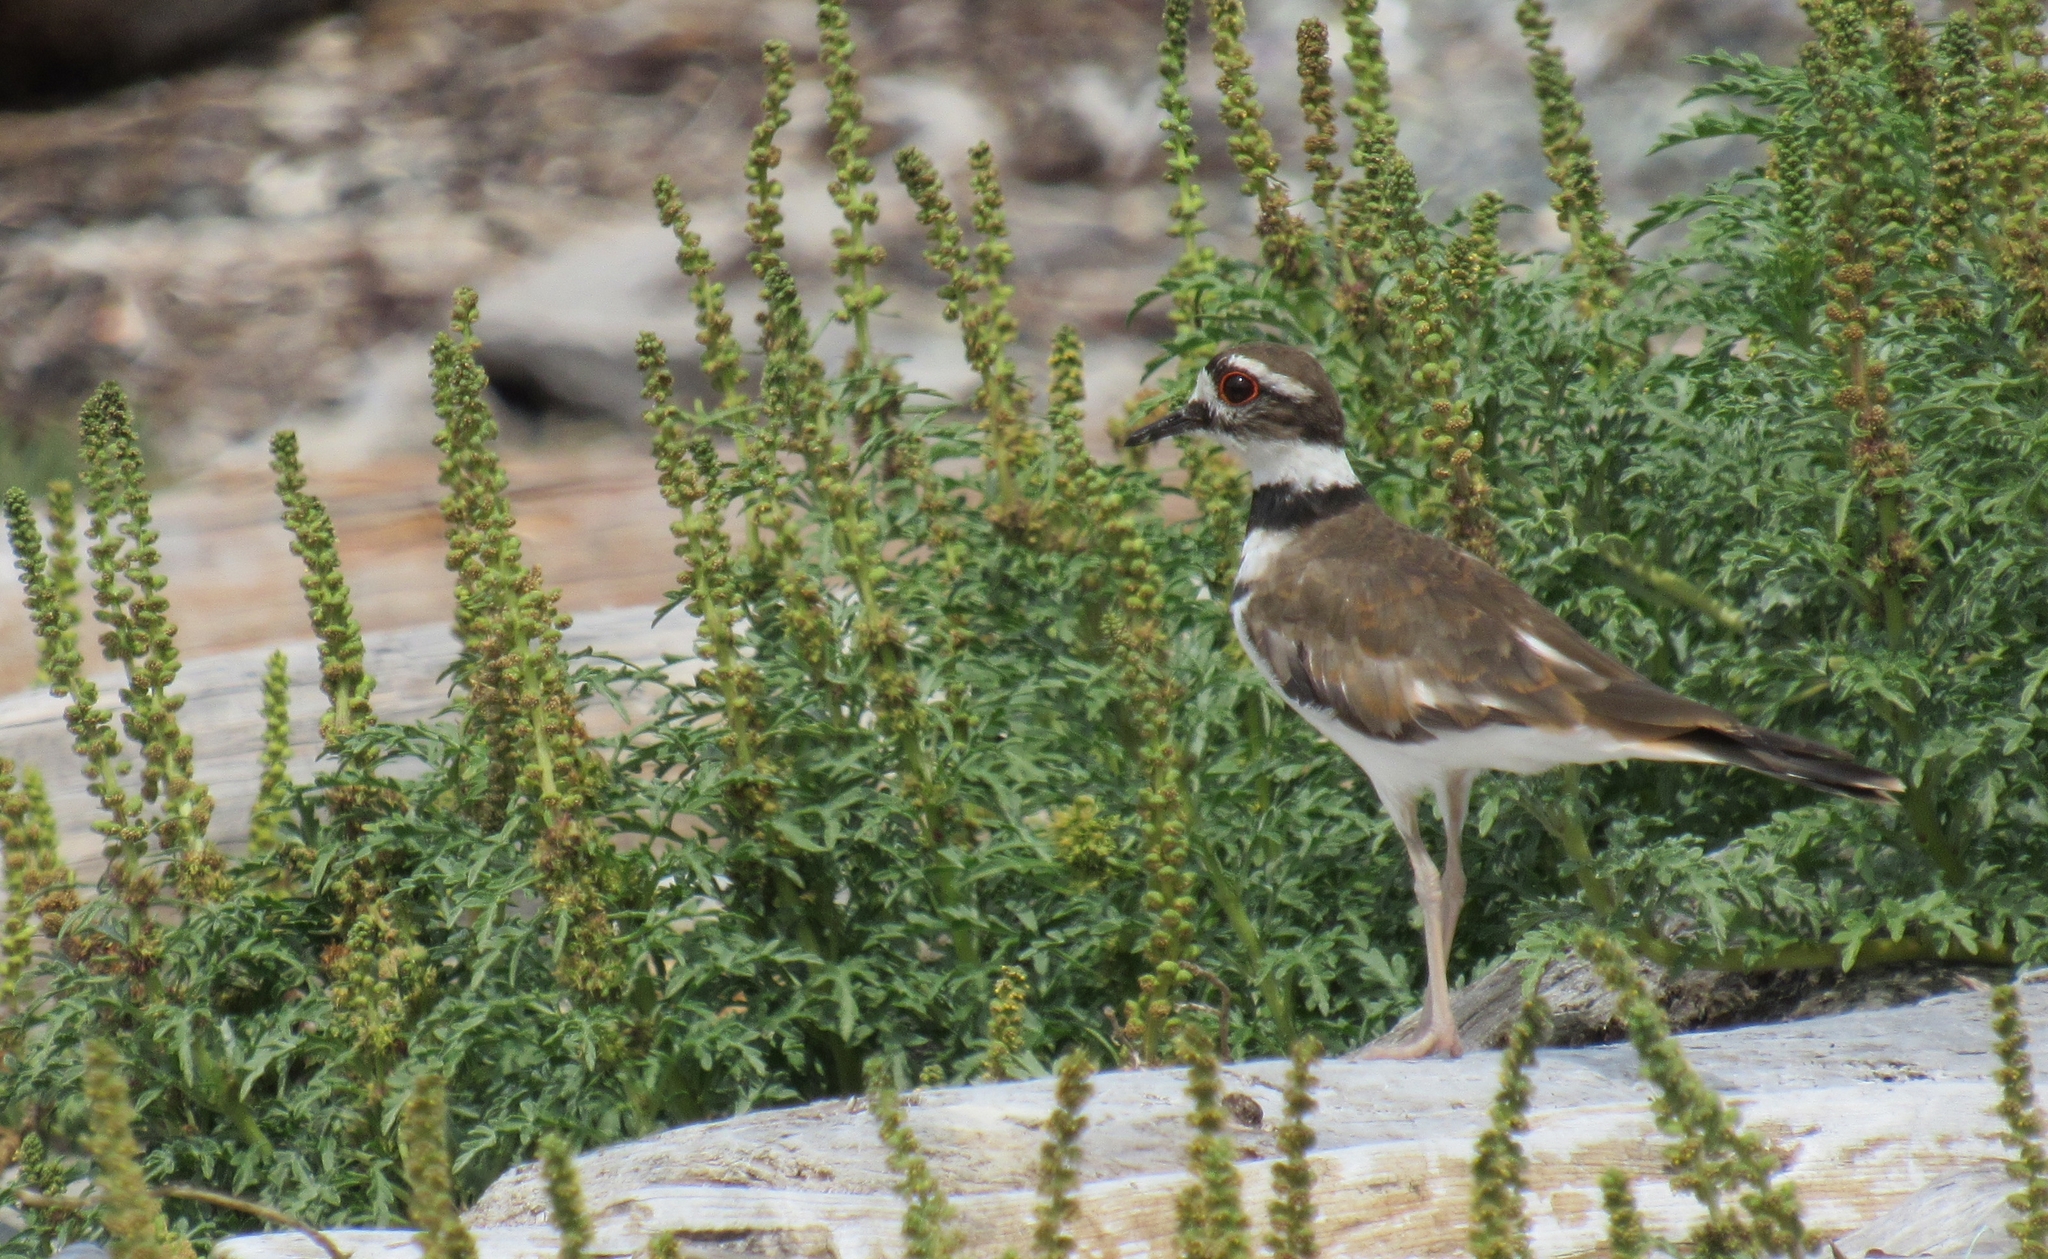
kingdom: Animalia
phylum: Chordata
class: Aves
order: Charadriiformes
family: Charadriidae
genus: Charadrius
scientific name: Charadrius vociferus
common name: Killdeer
